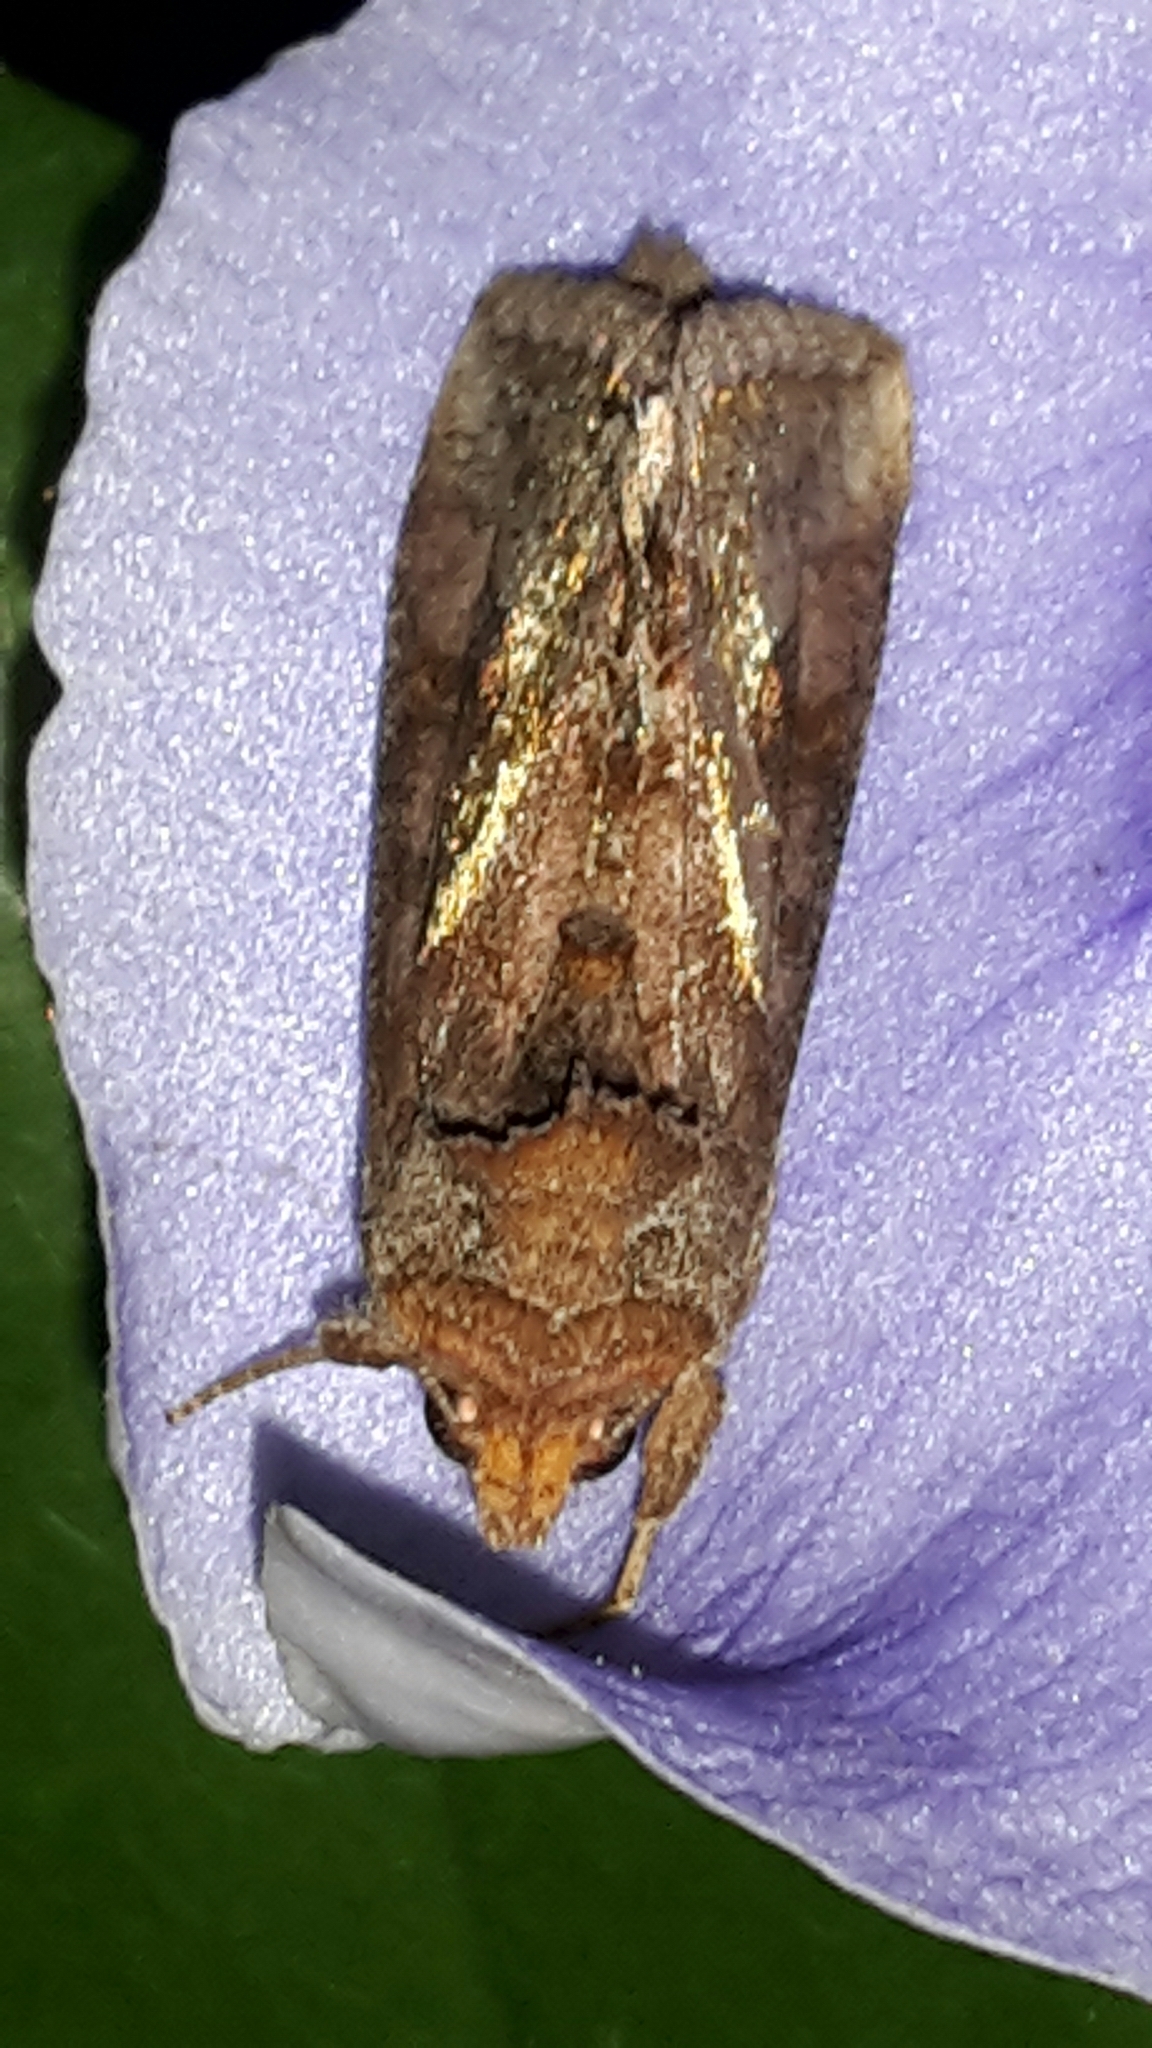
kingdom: Animalia
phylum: Arthropoda
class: Insecta
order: Lepidoptera
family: Noctuidae
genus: Thysanoplusia
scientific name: Thysanoplusia orichalcea
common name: Slender burnished brass, golden plusia
